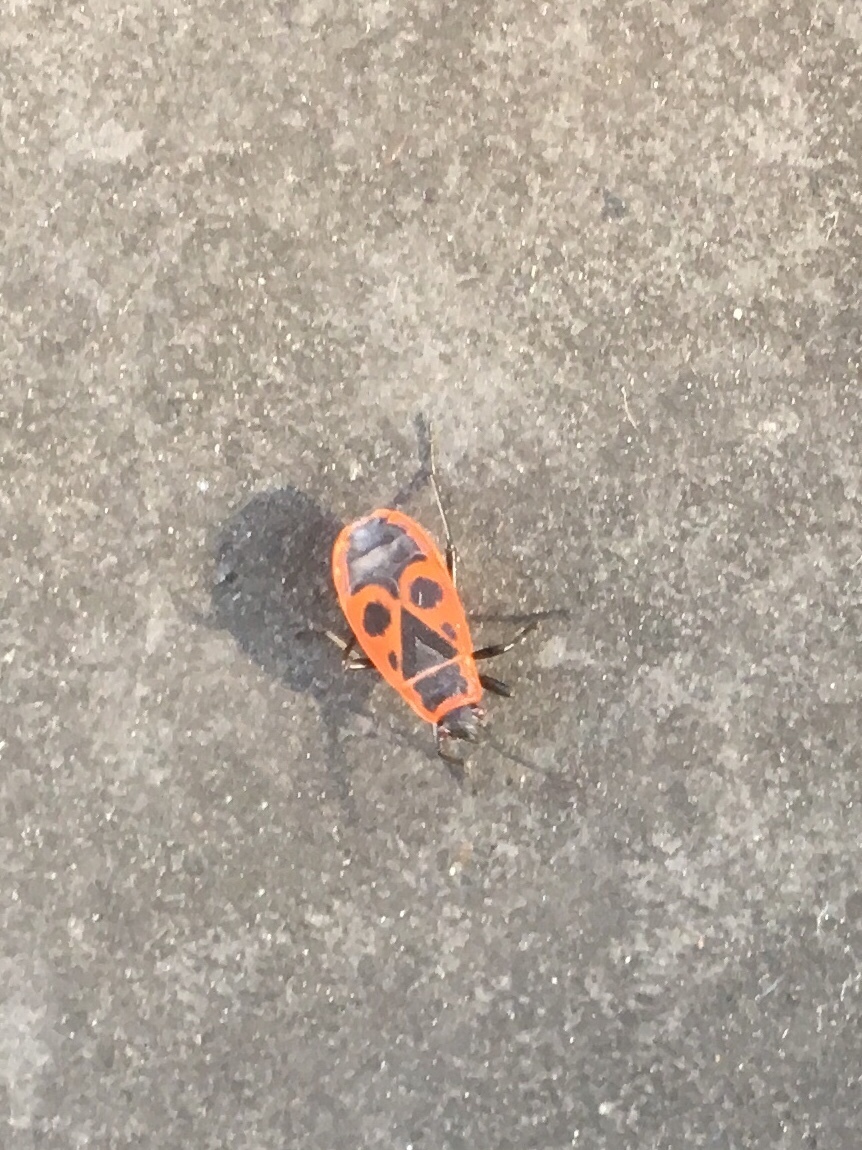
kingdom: Animalia
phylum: Arthropoda
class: Insecta
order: Hemiptera
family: Pyrrhocoridae
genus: Pyrrhocoris
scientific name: Pyrrhocoris apterus
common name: Firebug
